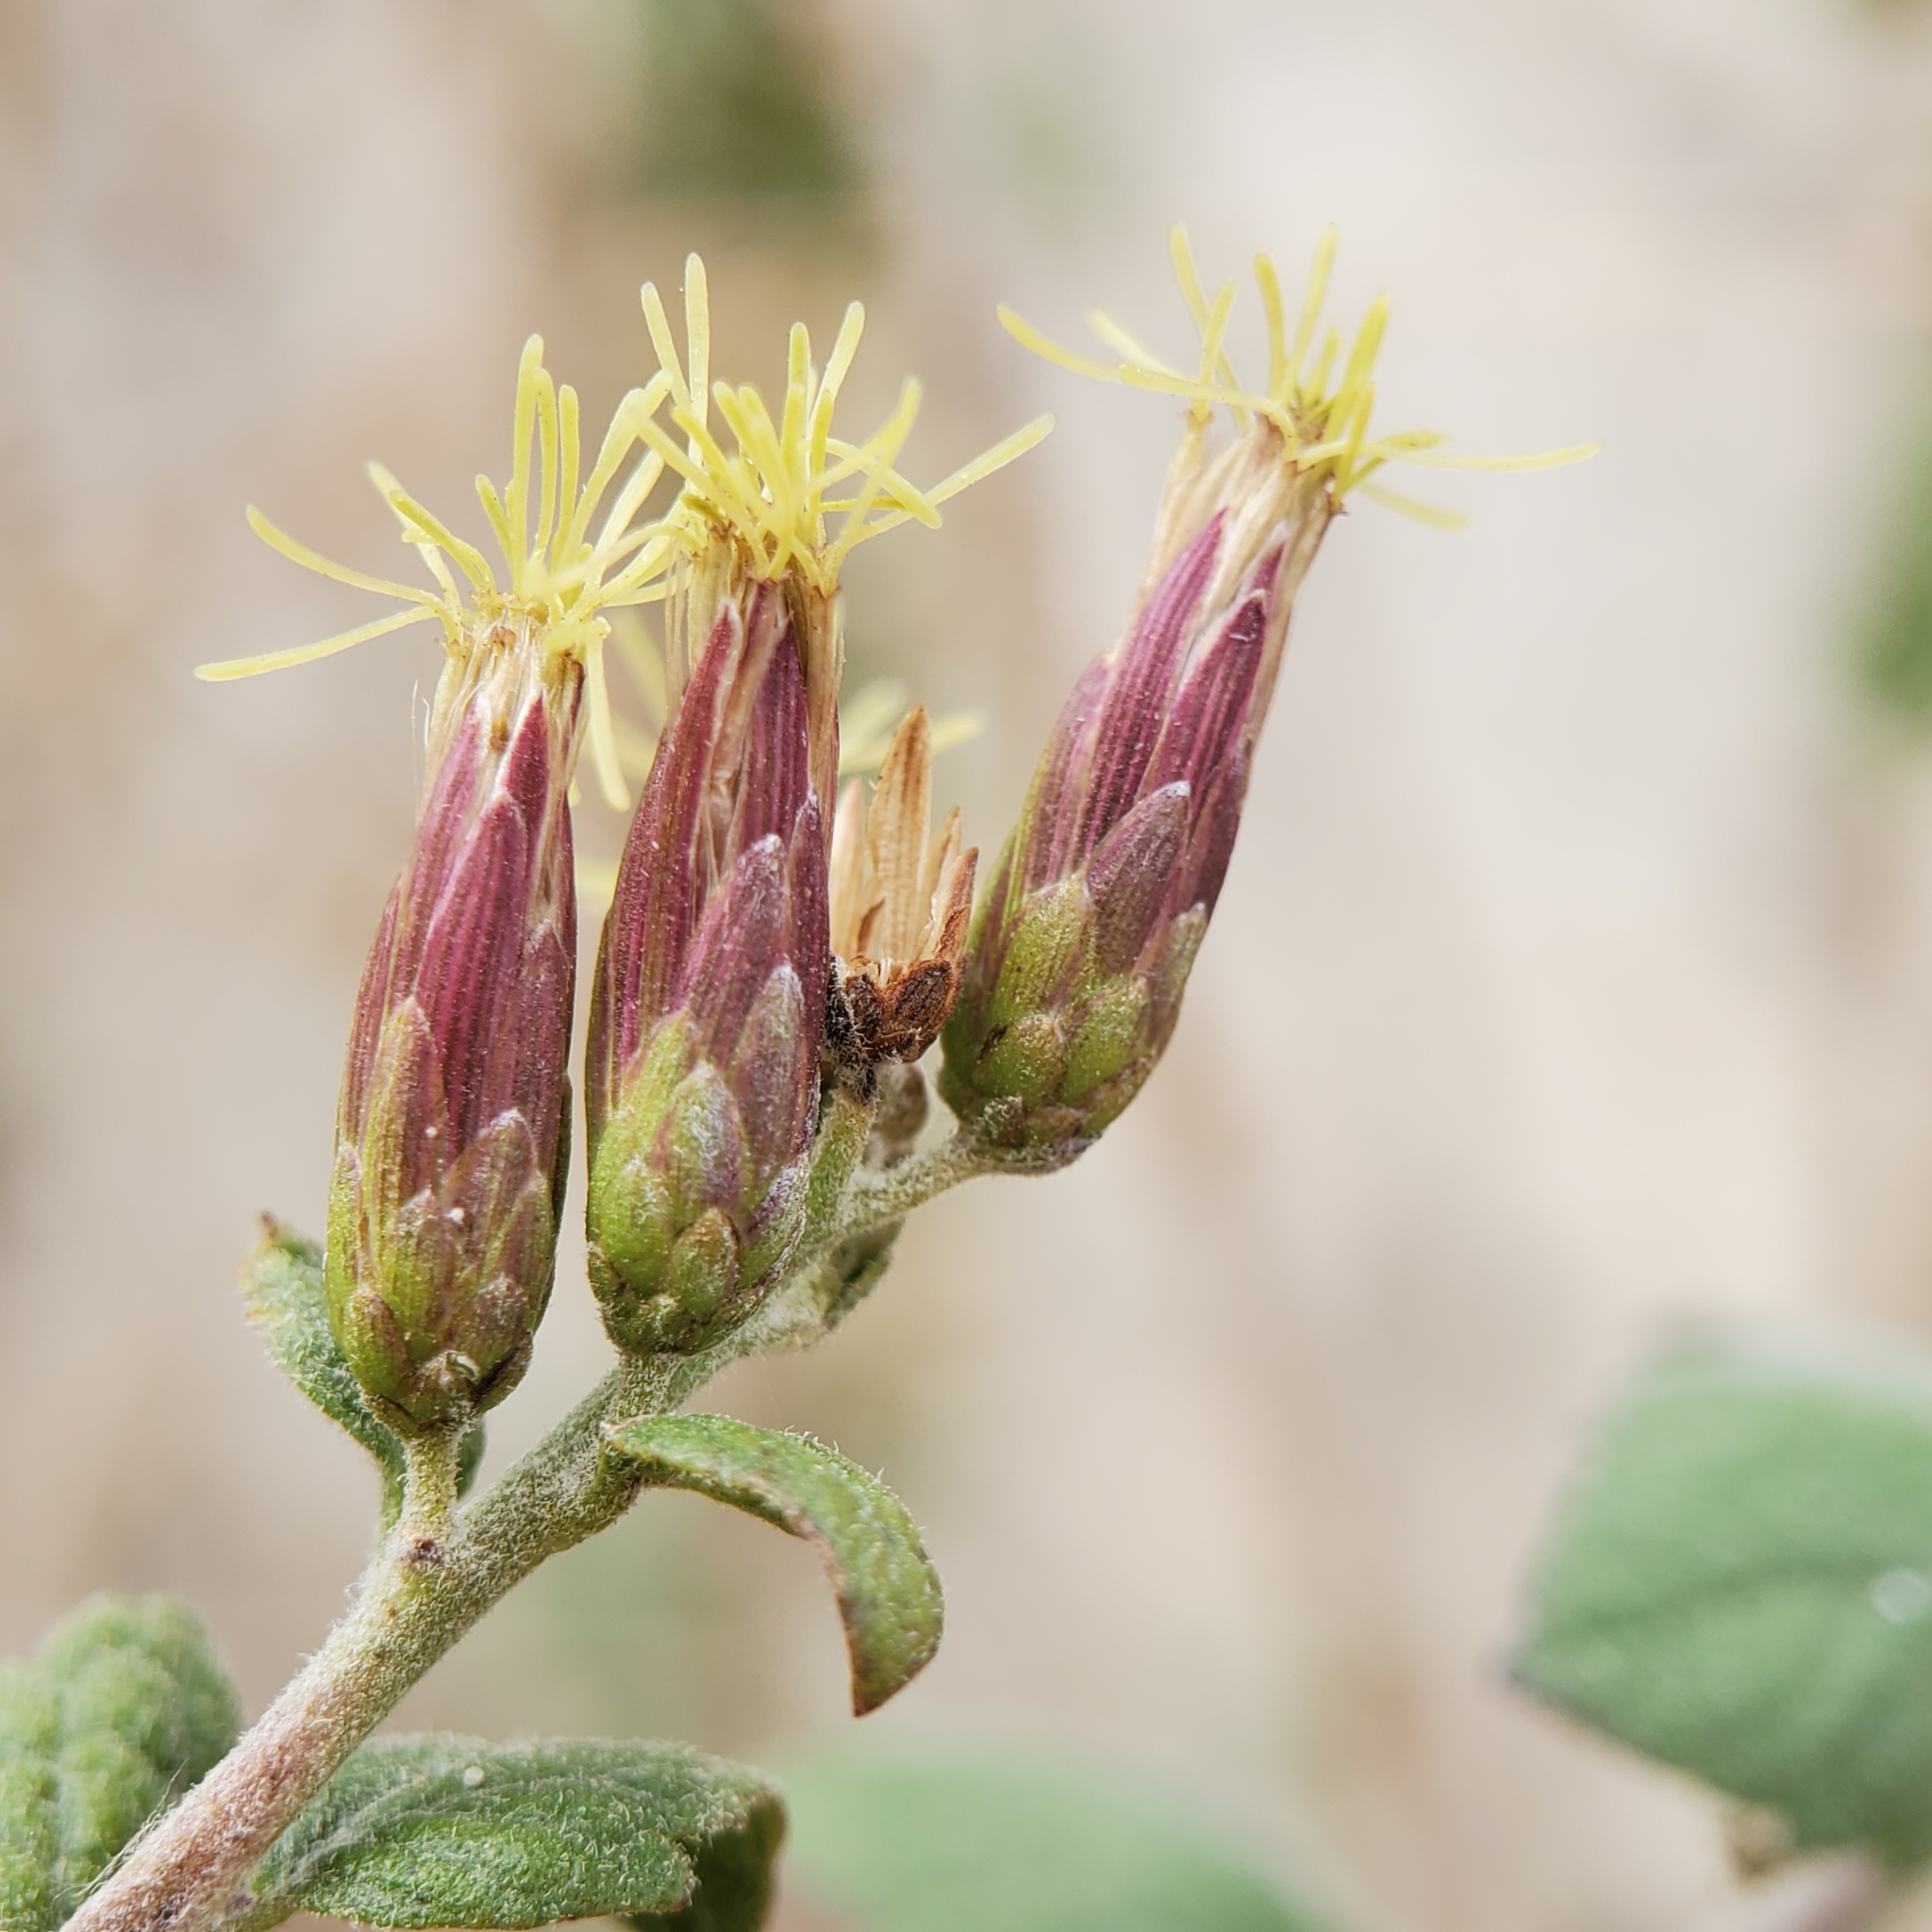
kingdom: Plantae
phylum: Tracheophyta
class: Magnoliopsida
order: Asterales
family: Asteraceae
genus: Brickellia
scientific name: Brickellia californica
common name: California brickellbush
